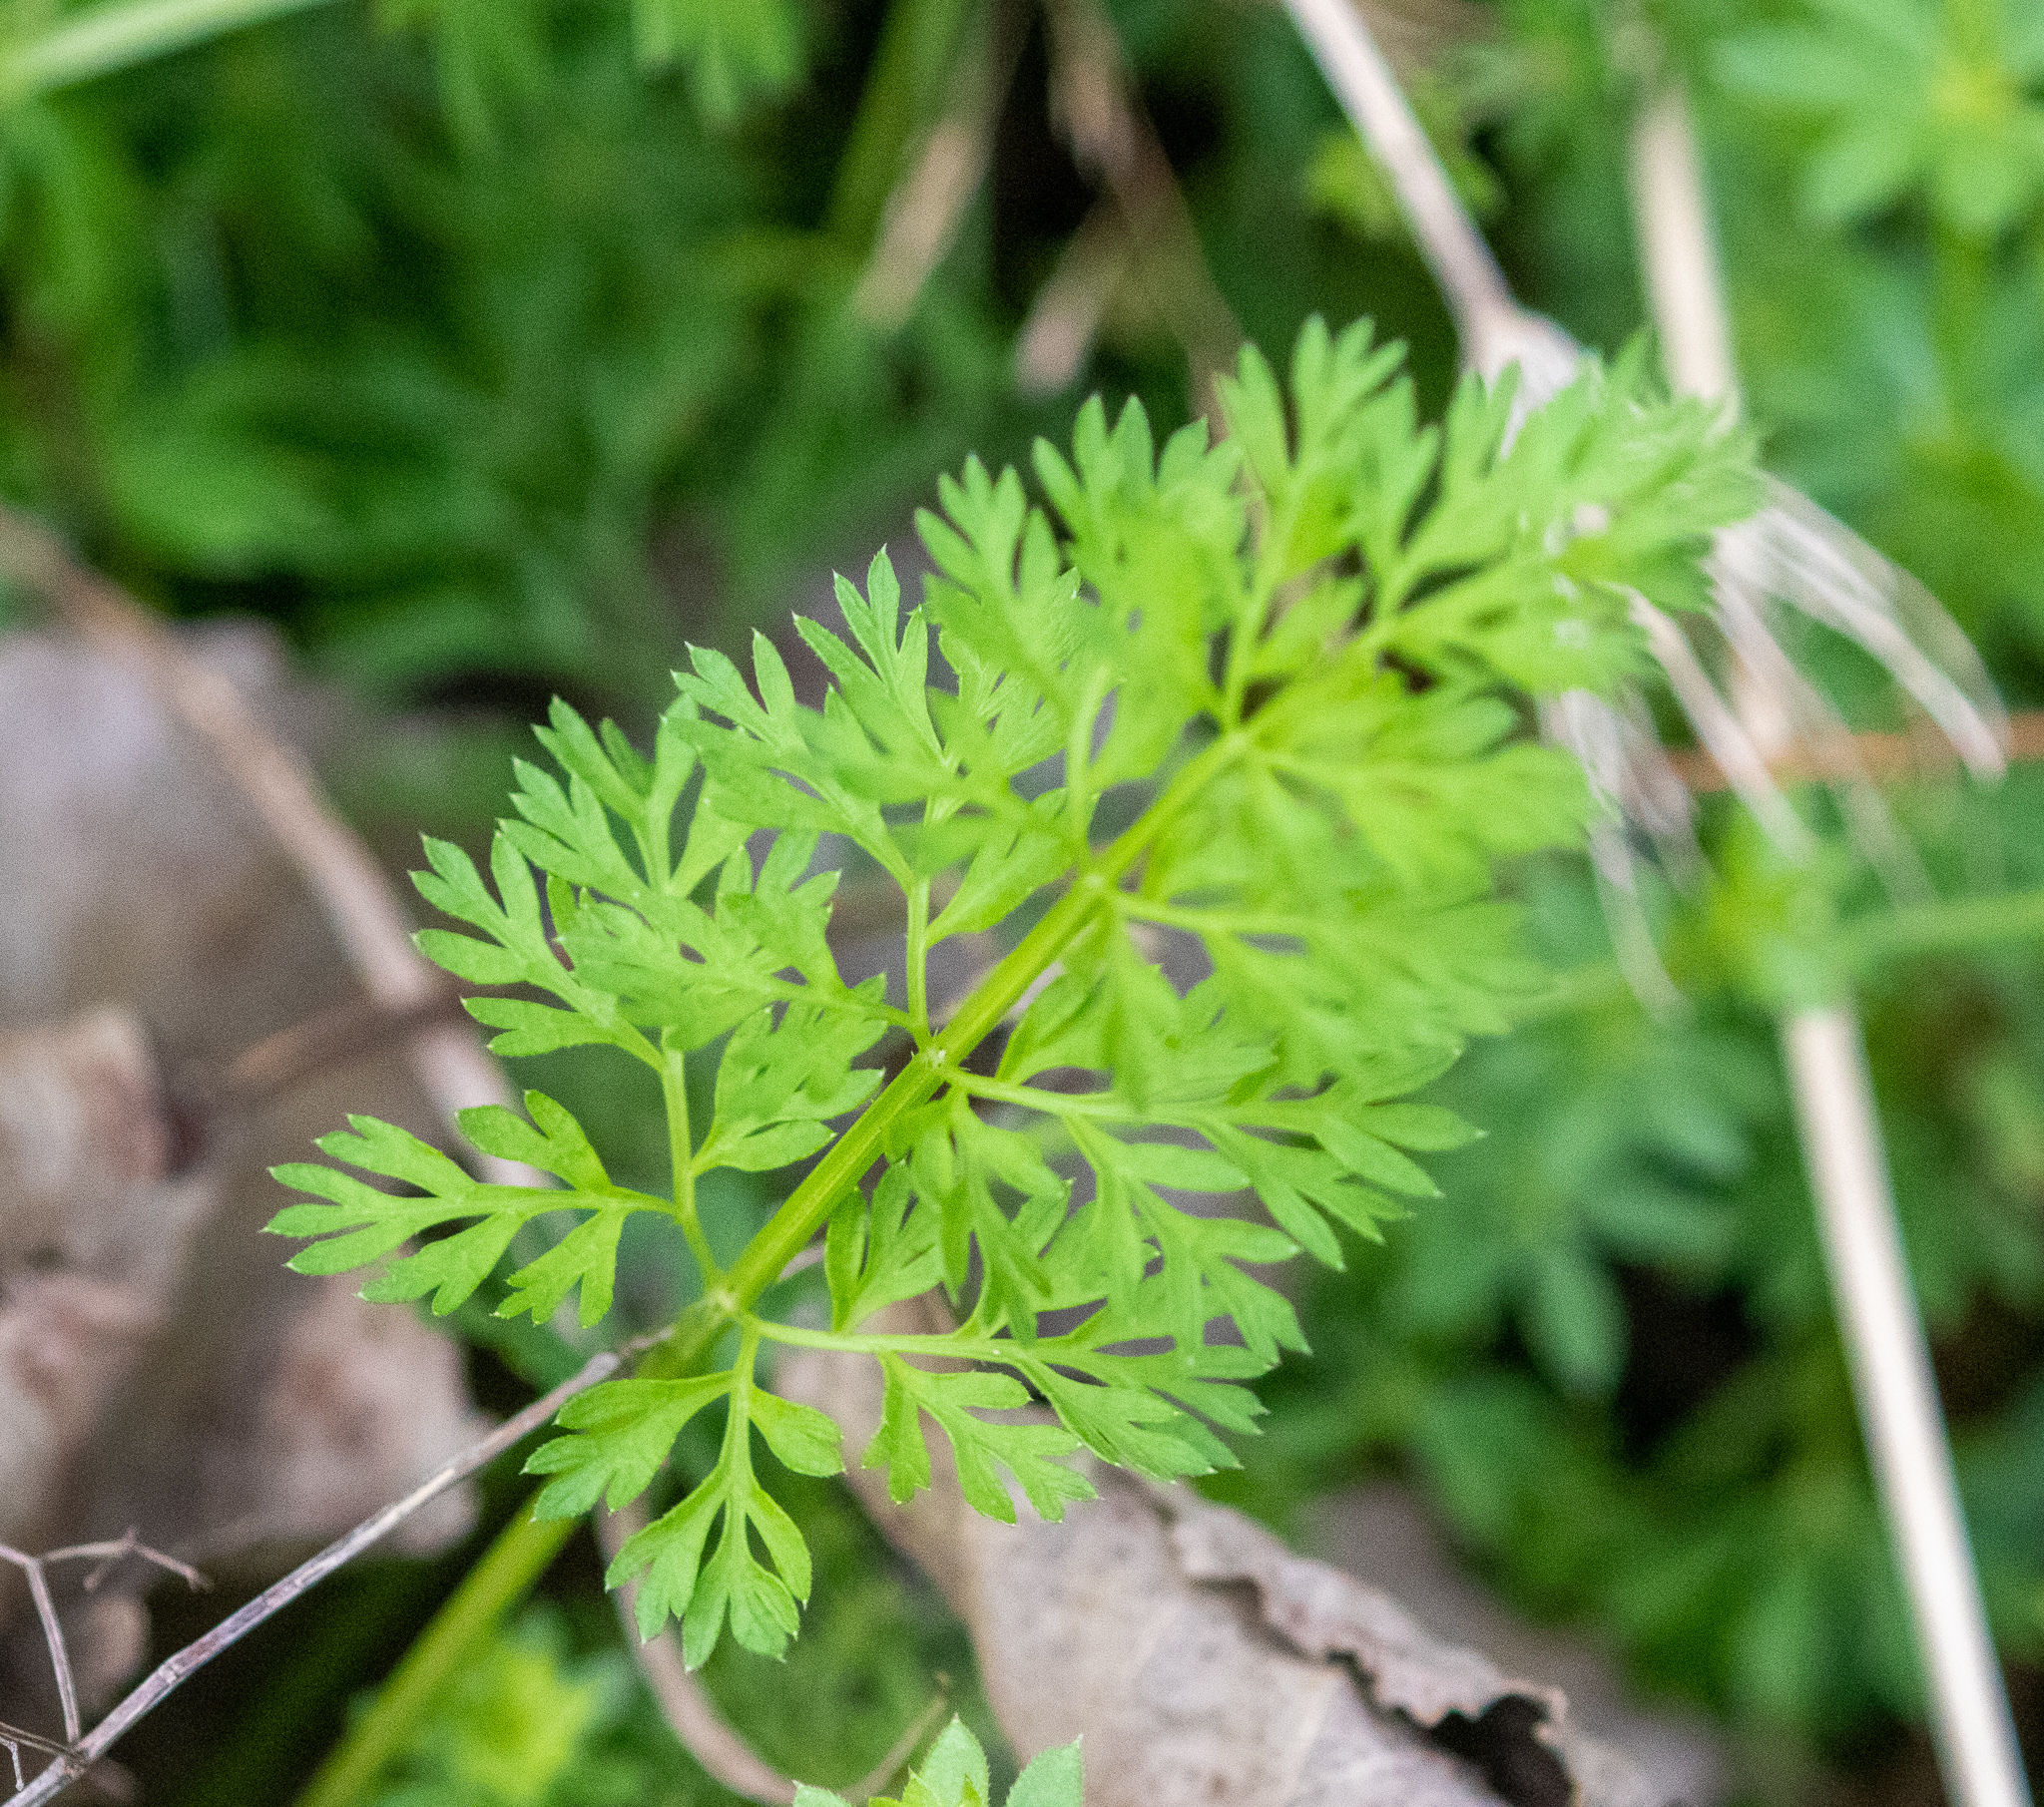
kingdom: Plantae
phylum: Tracheophyta
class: Magnoliopsida
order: Apiales
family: Apiaceae
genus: Daucus
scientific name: Daucus carota
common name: Wild carrot
